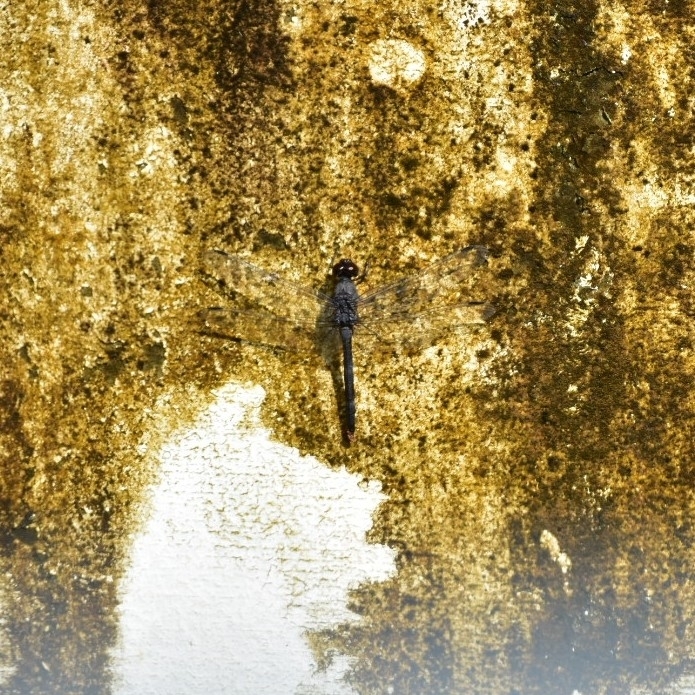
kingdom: Animalia
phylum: Arthropoda
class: Insecta
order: Odonata
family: Libellulidae
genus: Bradinopyga
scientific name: Bradinopyga geminata
